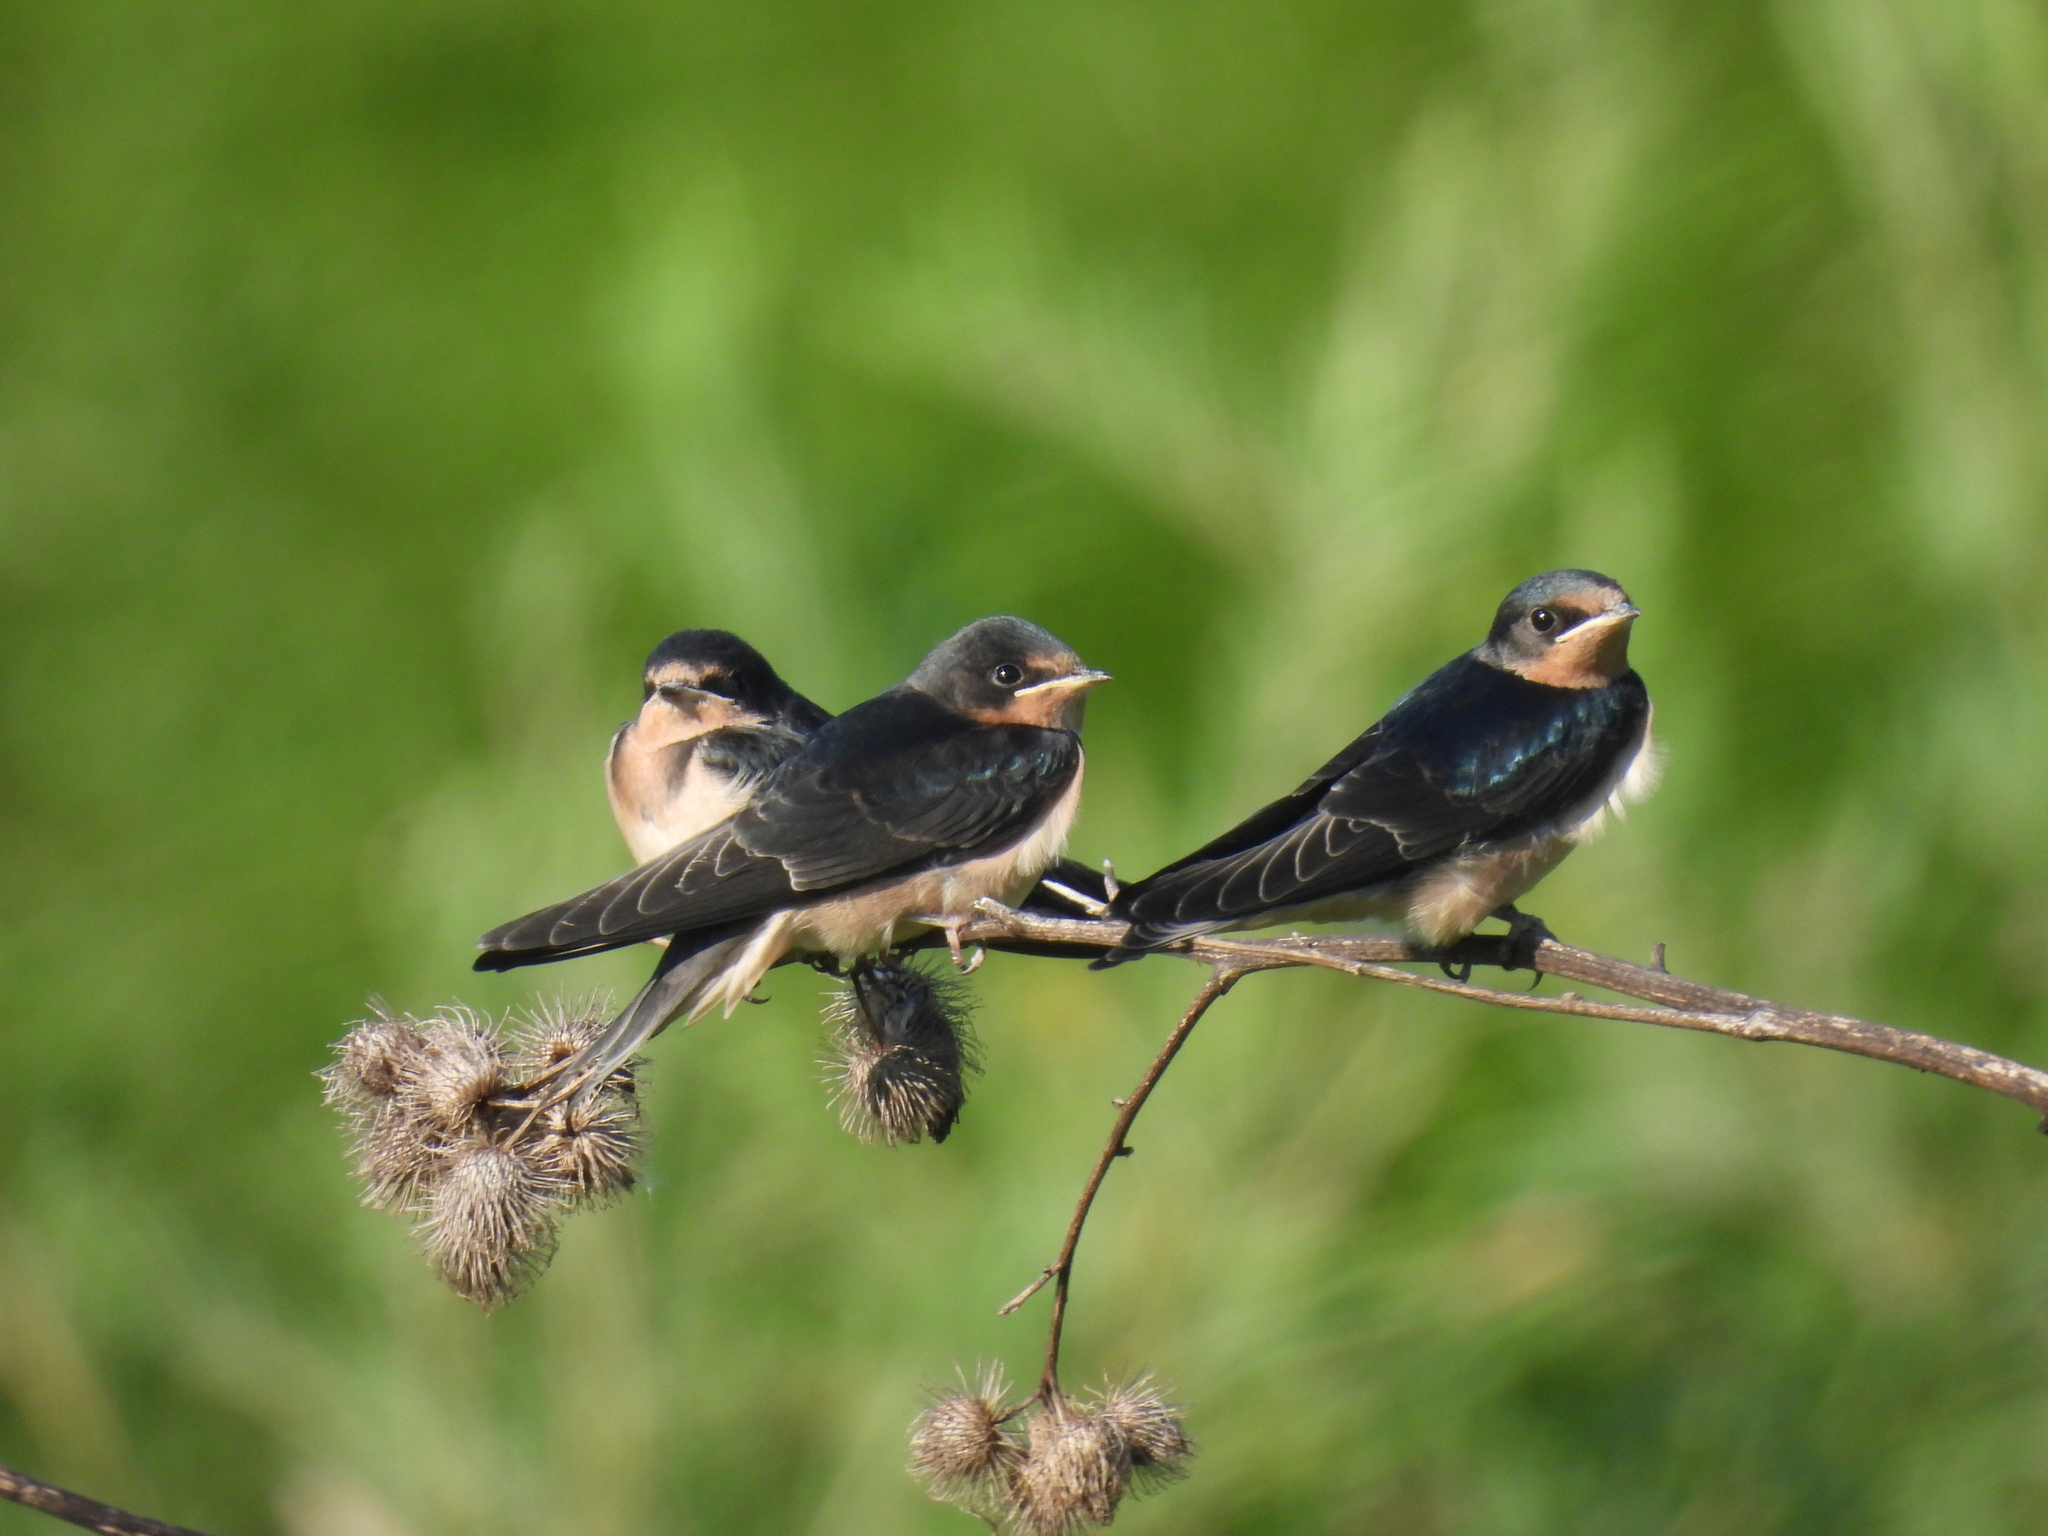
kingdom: Animalia
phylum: Chordata
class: Aves
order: Passeriformes
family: Hirundinidae
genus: Hirundo
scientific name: Hirundo rustica
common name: Barn swallow
